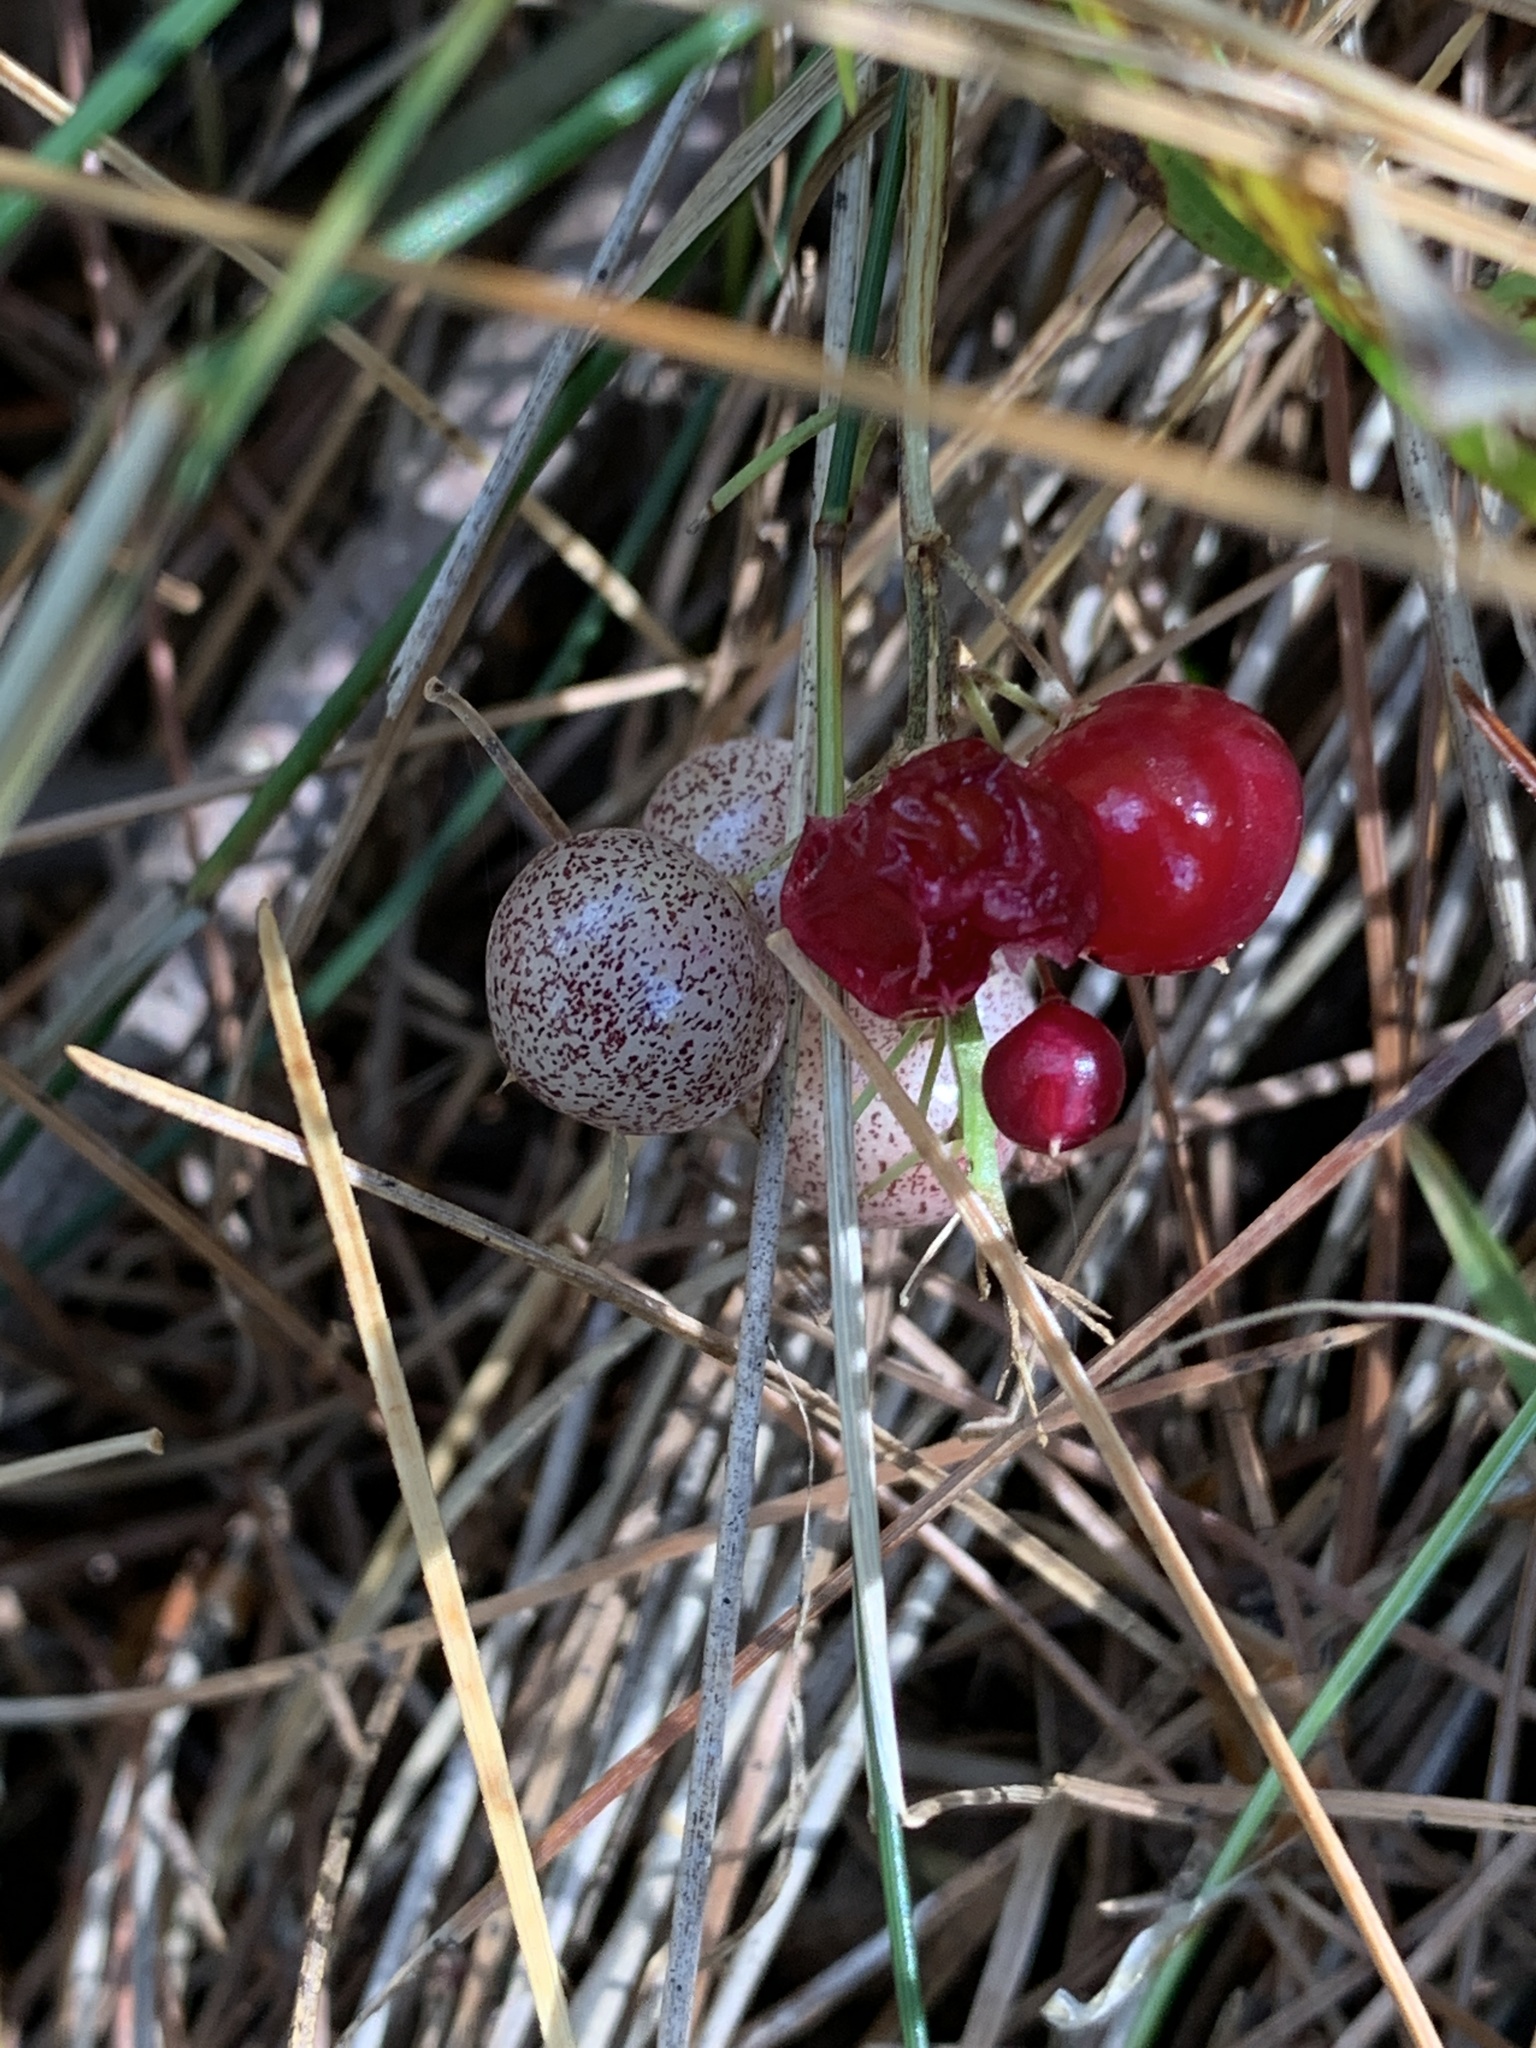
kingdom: Plantae
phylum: Tracheophyta
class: Liliopsida
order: Asparagales
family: Asparagaceae
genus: Maianthemum
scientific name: Maianthemum canadense
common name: False lily-of-the-valley
